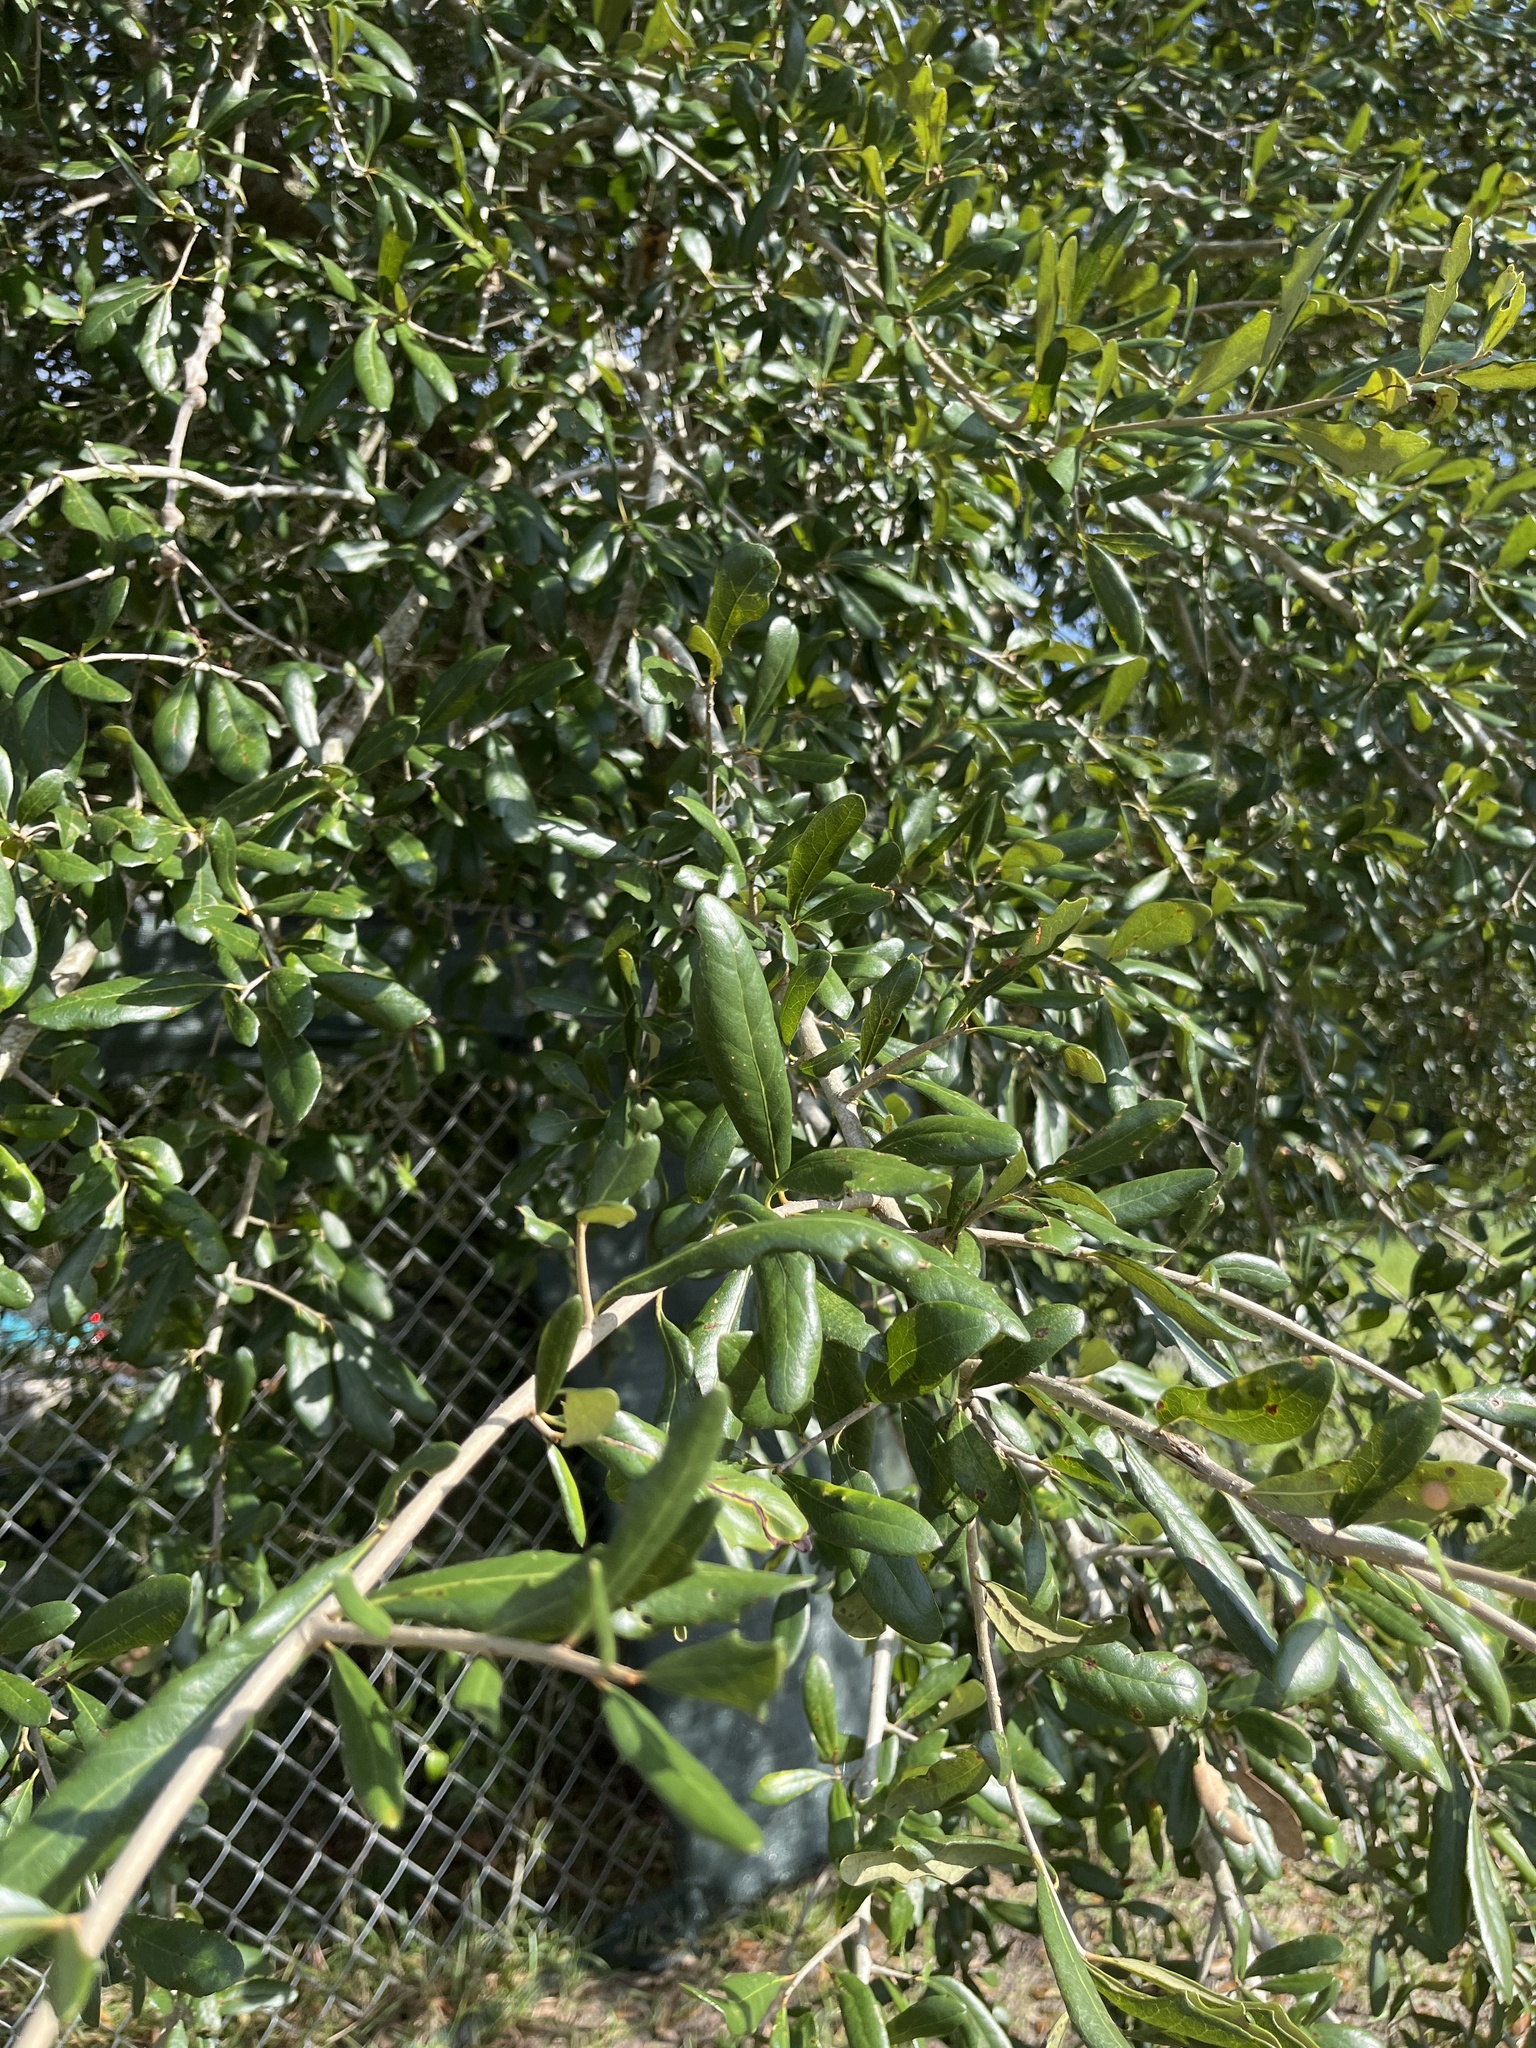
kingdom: Plantae
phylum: Tracheophyta
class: Magnoliopsida
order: Fagales
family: Fagaceae
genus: Quercus
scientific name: Quercus virginiana
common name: Southern live oak
